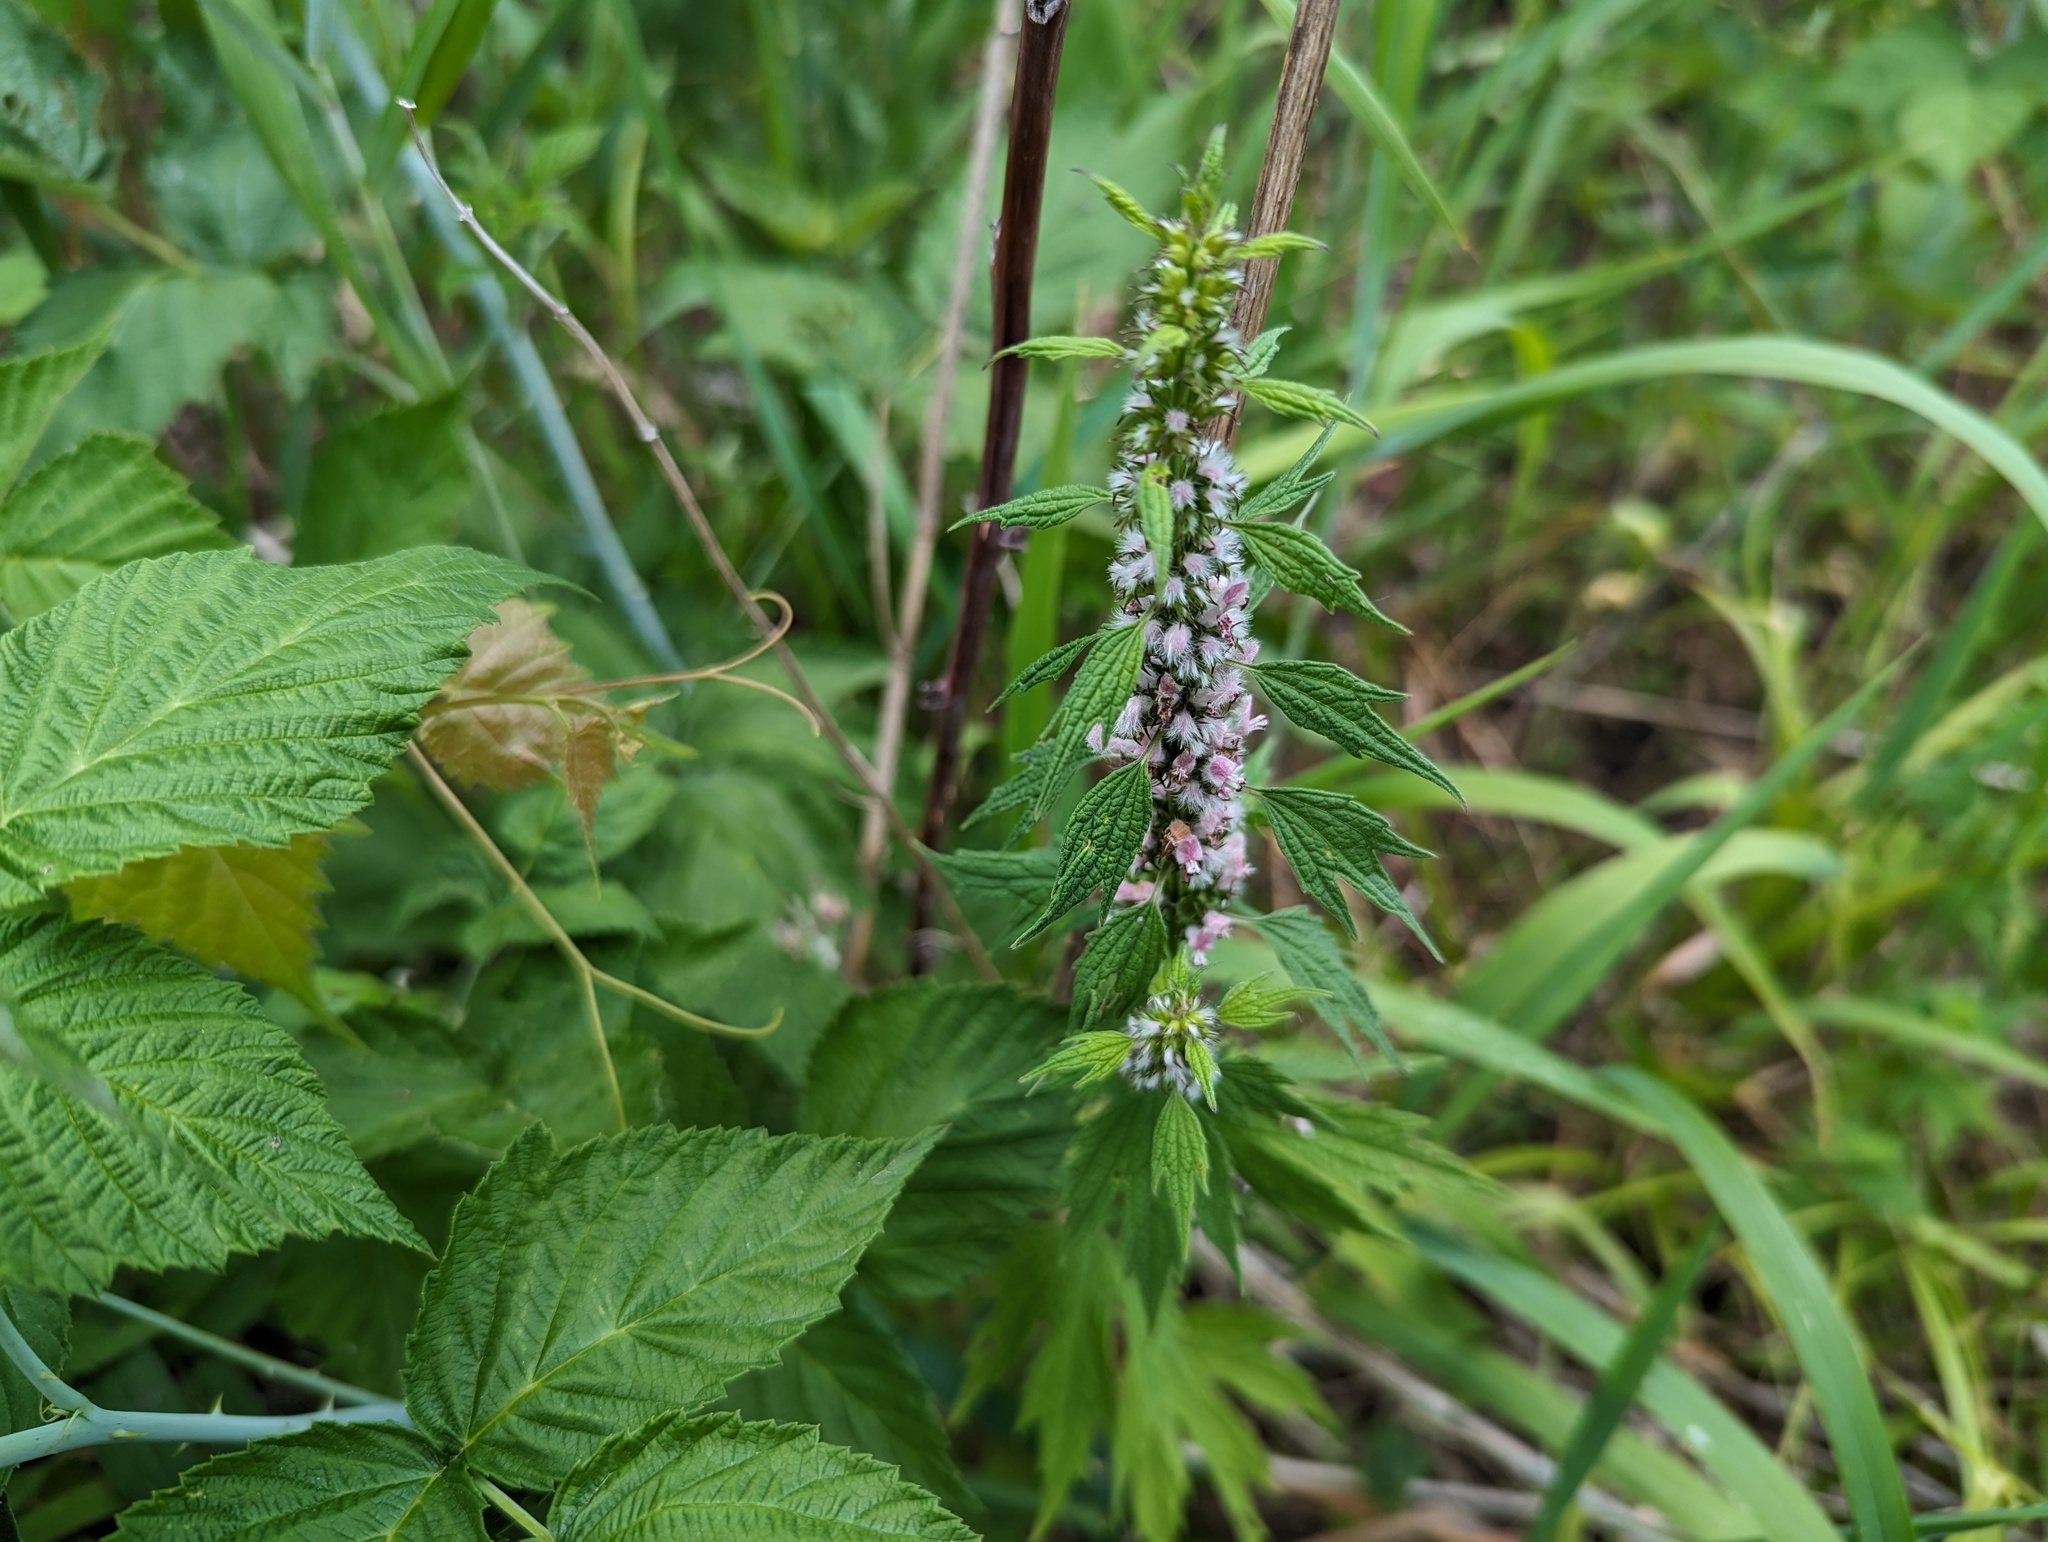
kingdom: Plantae
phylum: Tracheophyta
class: Magnoliopsida
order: Lamiales
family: Lamiaceae
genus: Leonurus
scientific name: Leonurus cardiaca
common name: Motherwort
